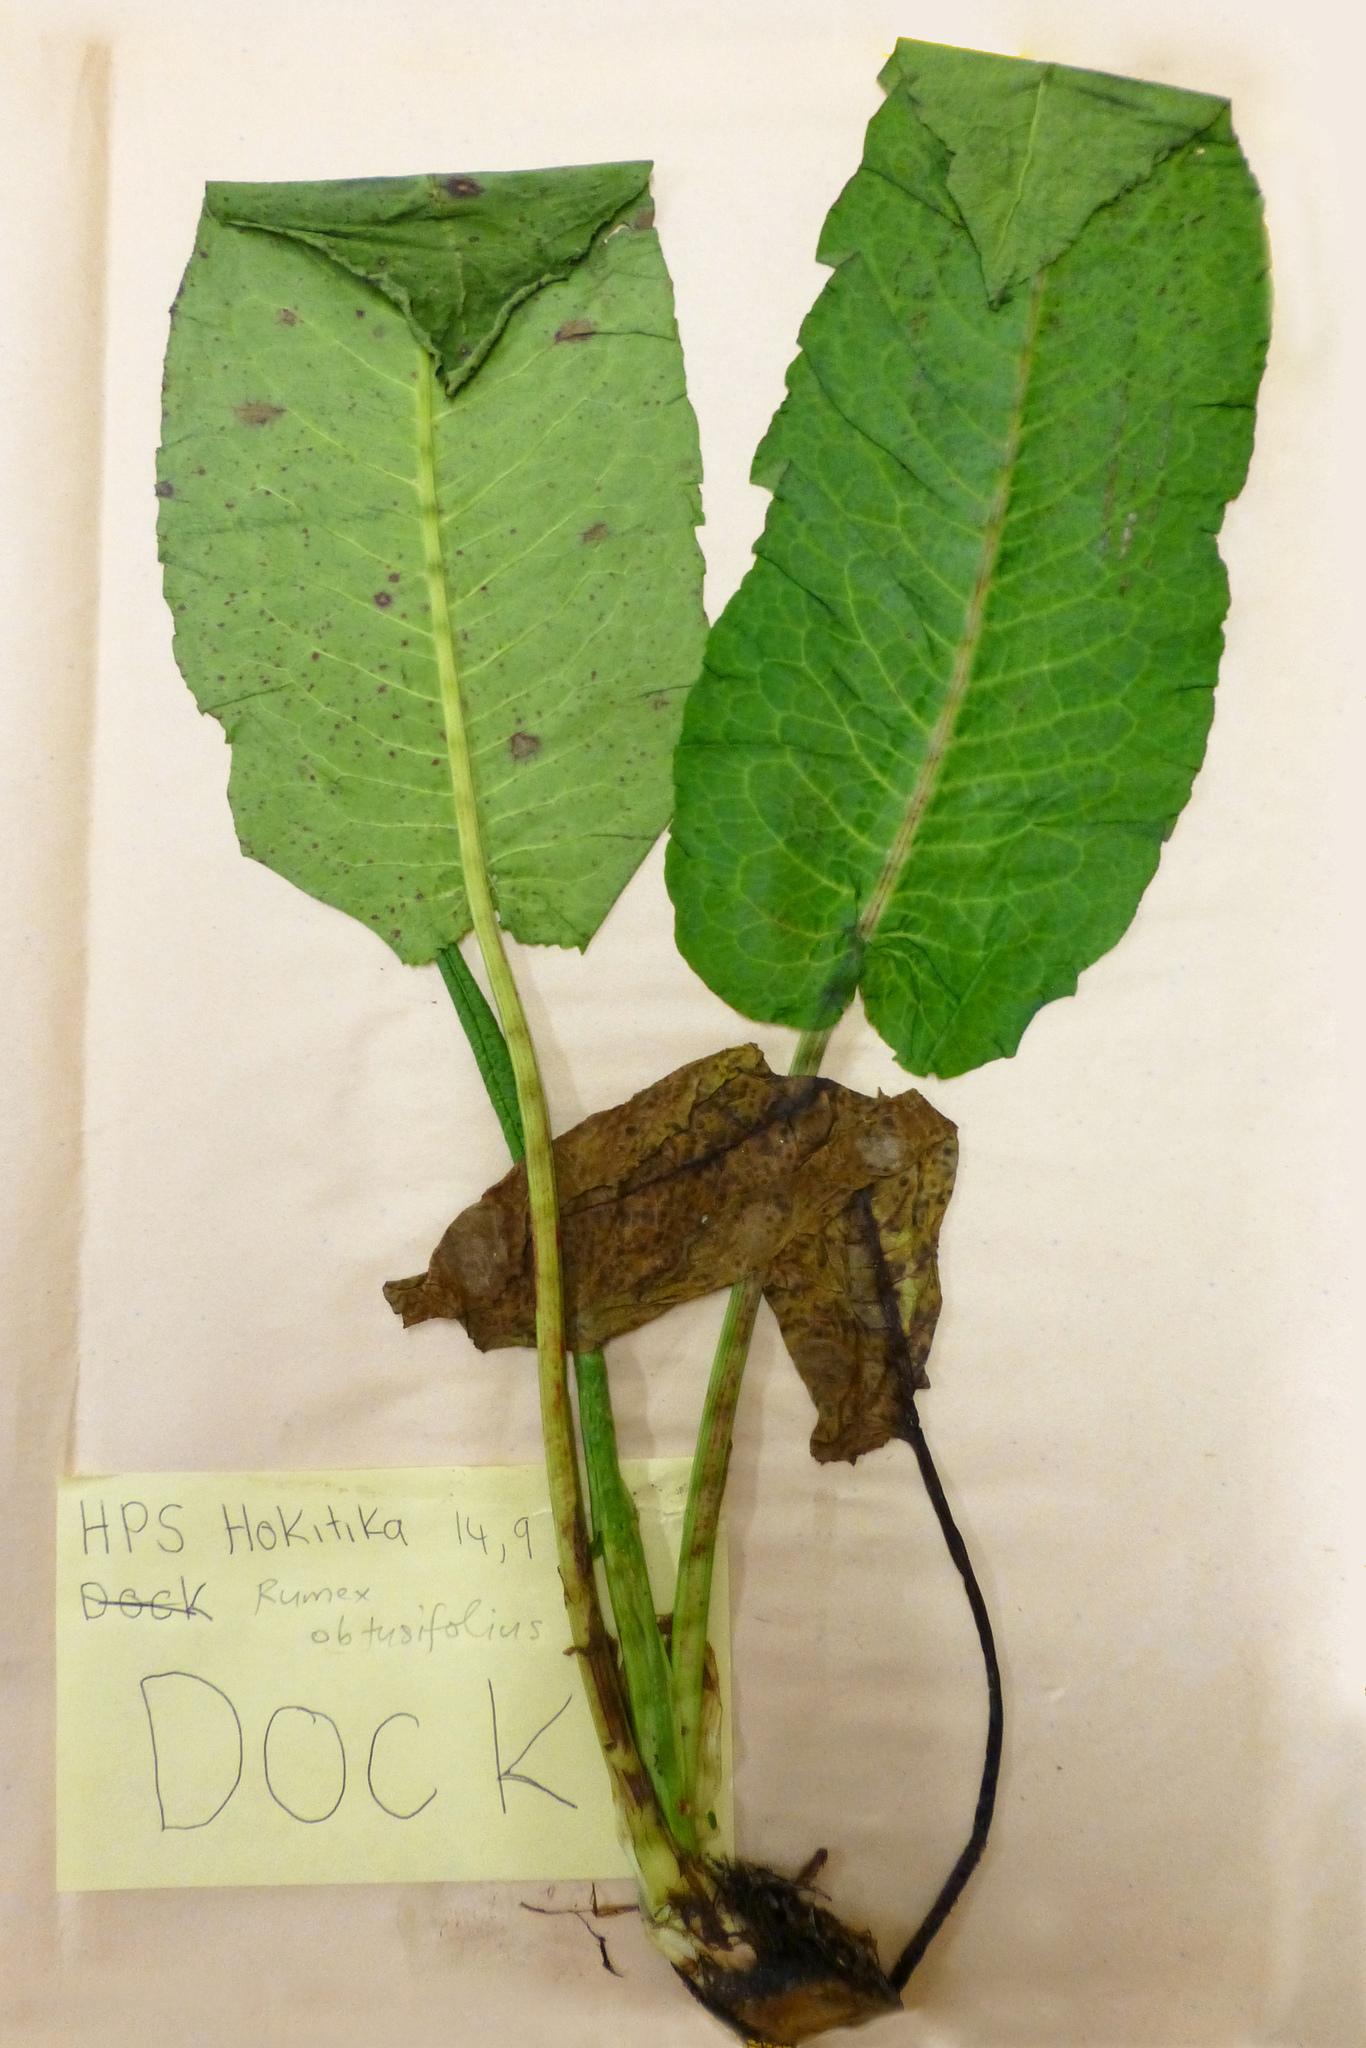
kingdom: Plantae
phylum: Tracheophyta
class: Magnoliopsida
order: Caryophyllales
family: Polygonaceae
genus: Rumex
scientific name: Rumex obtusifolius
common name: Bitter dock
